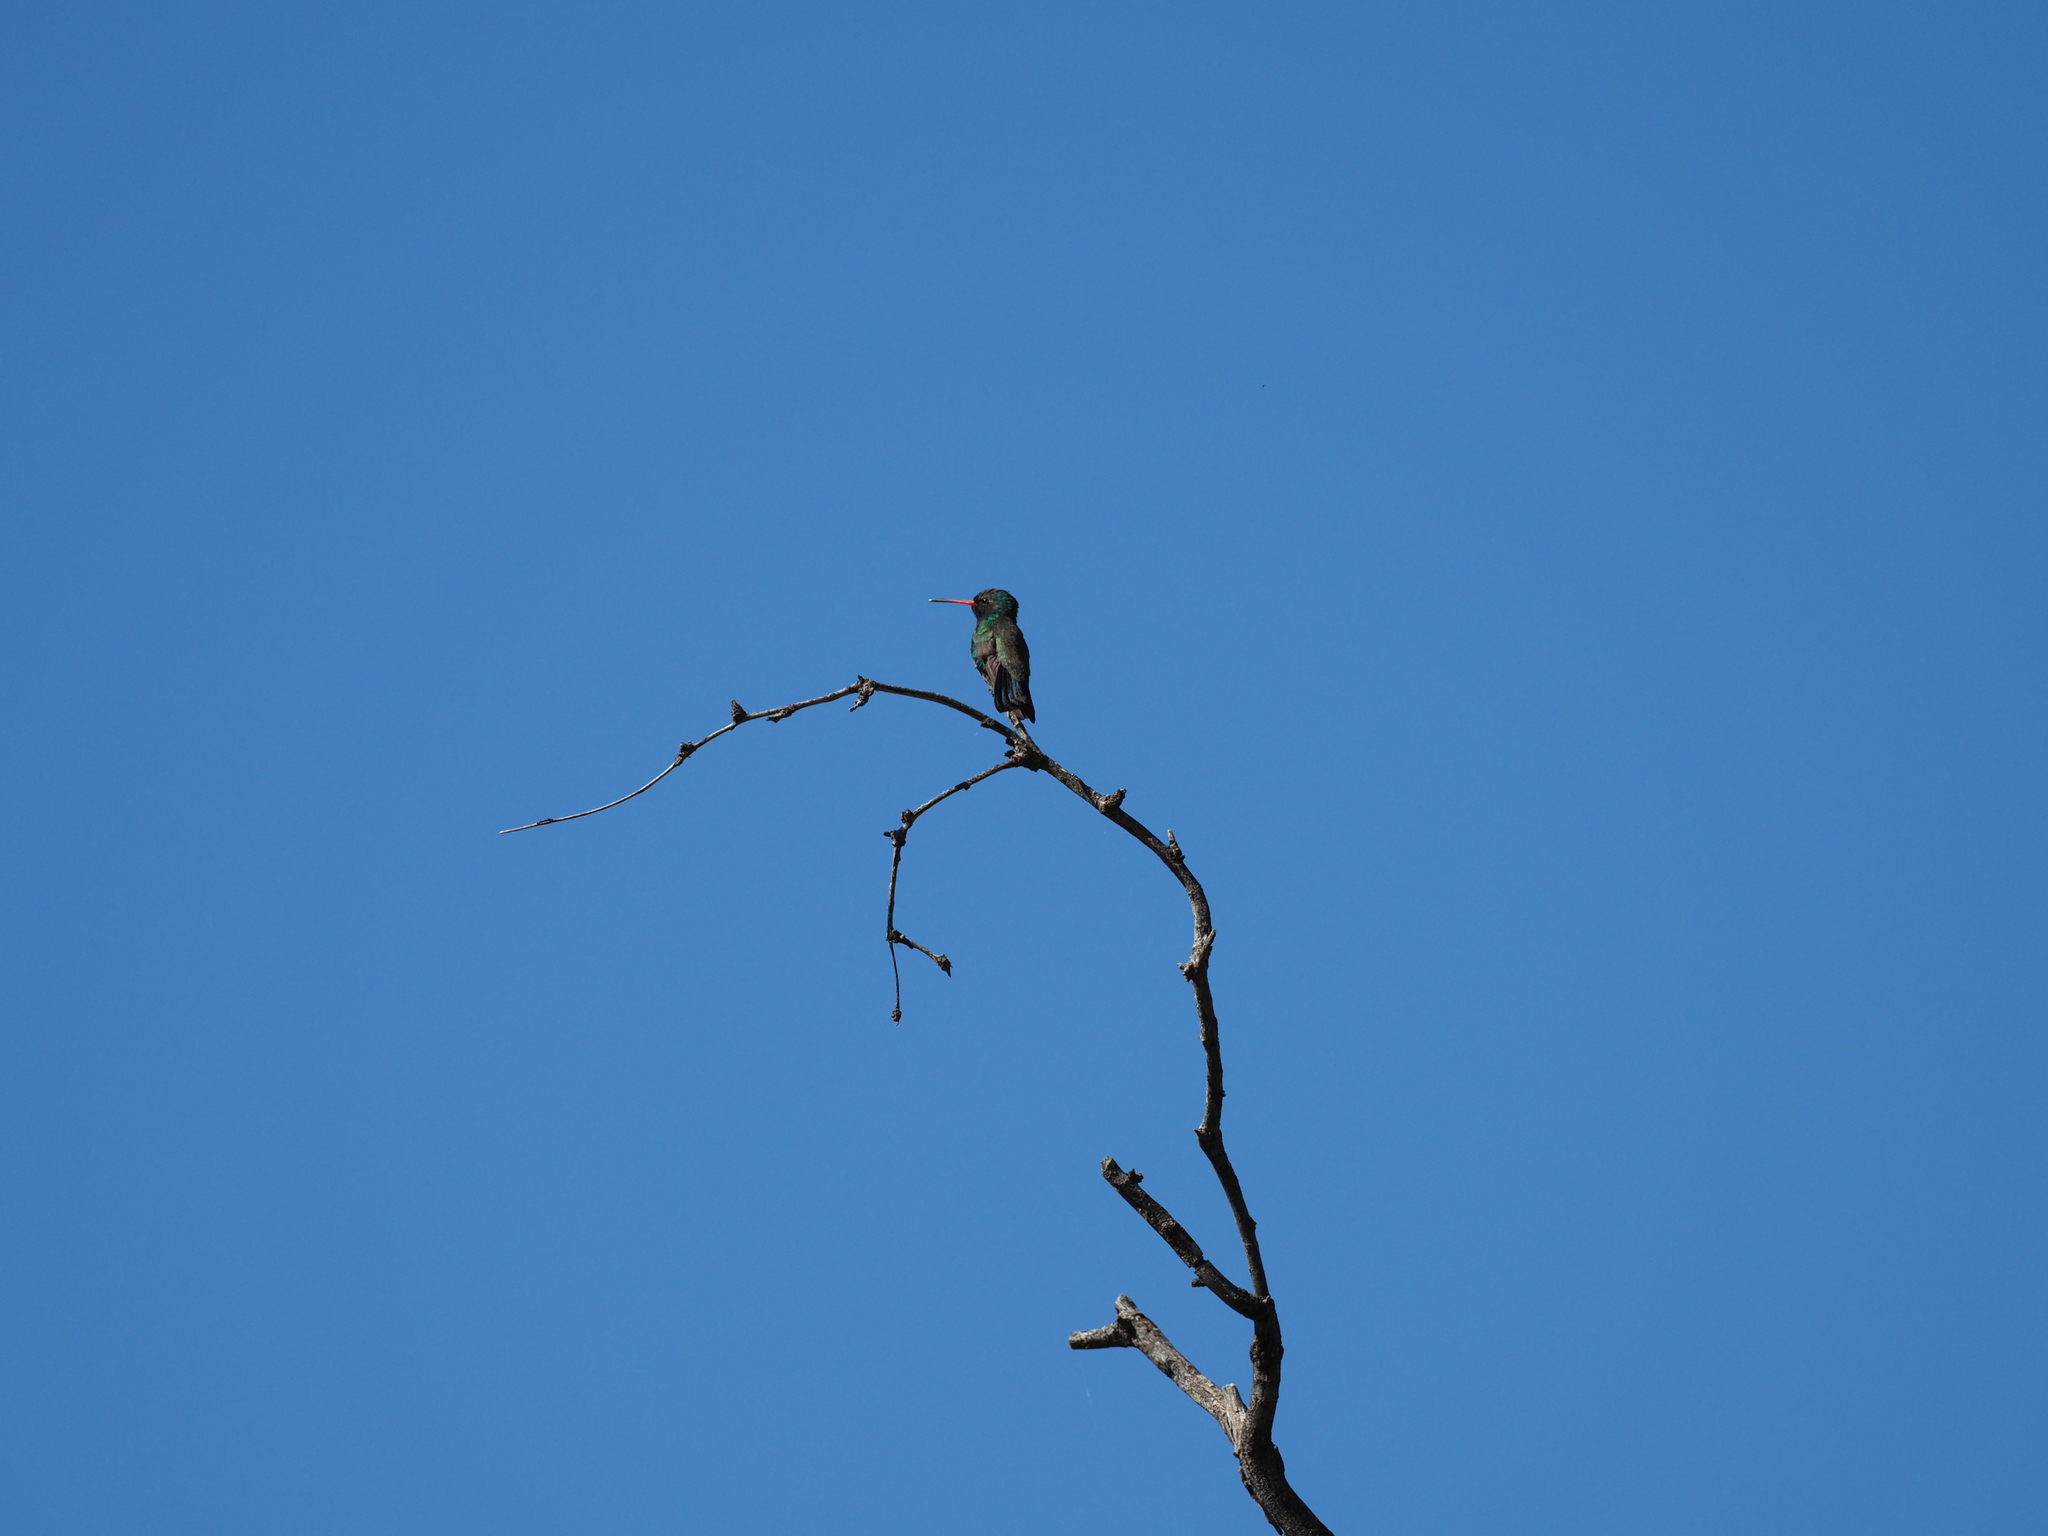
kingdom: Animalia
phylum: Chordata
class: Aves
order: Apodiformes
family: Trochilidae
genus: Cynanthus
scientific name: Cynanthus latirostris
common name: Broad-billed hummingbird
